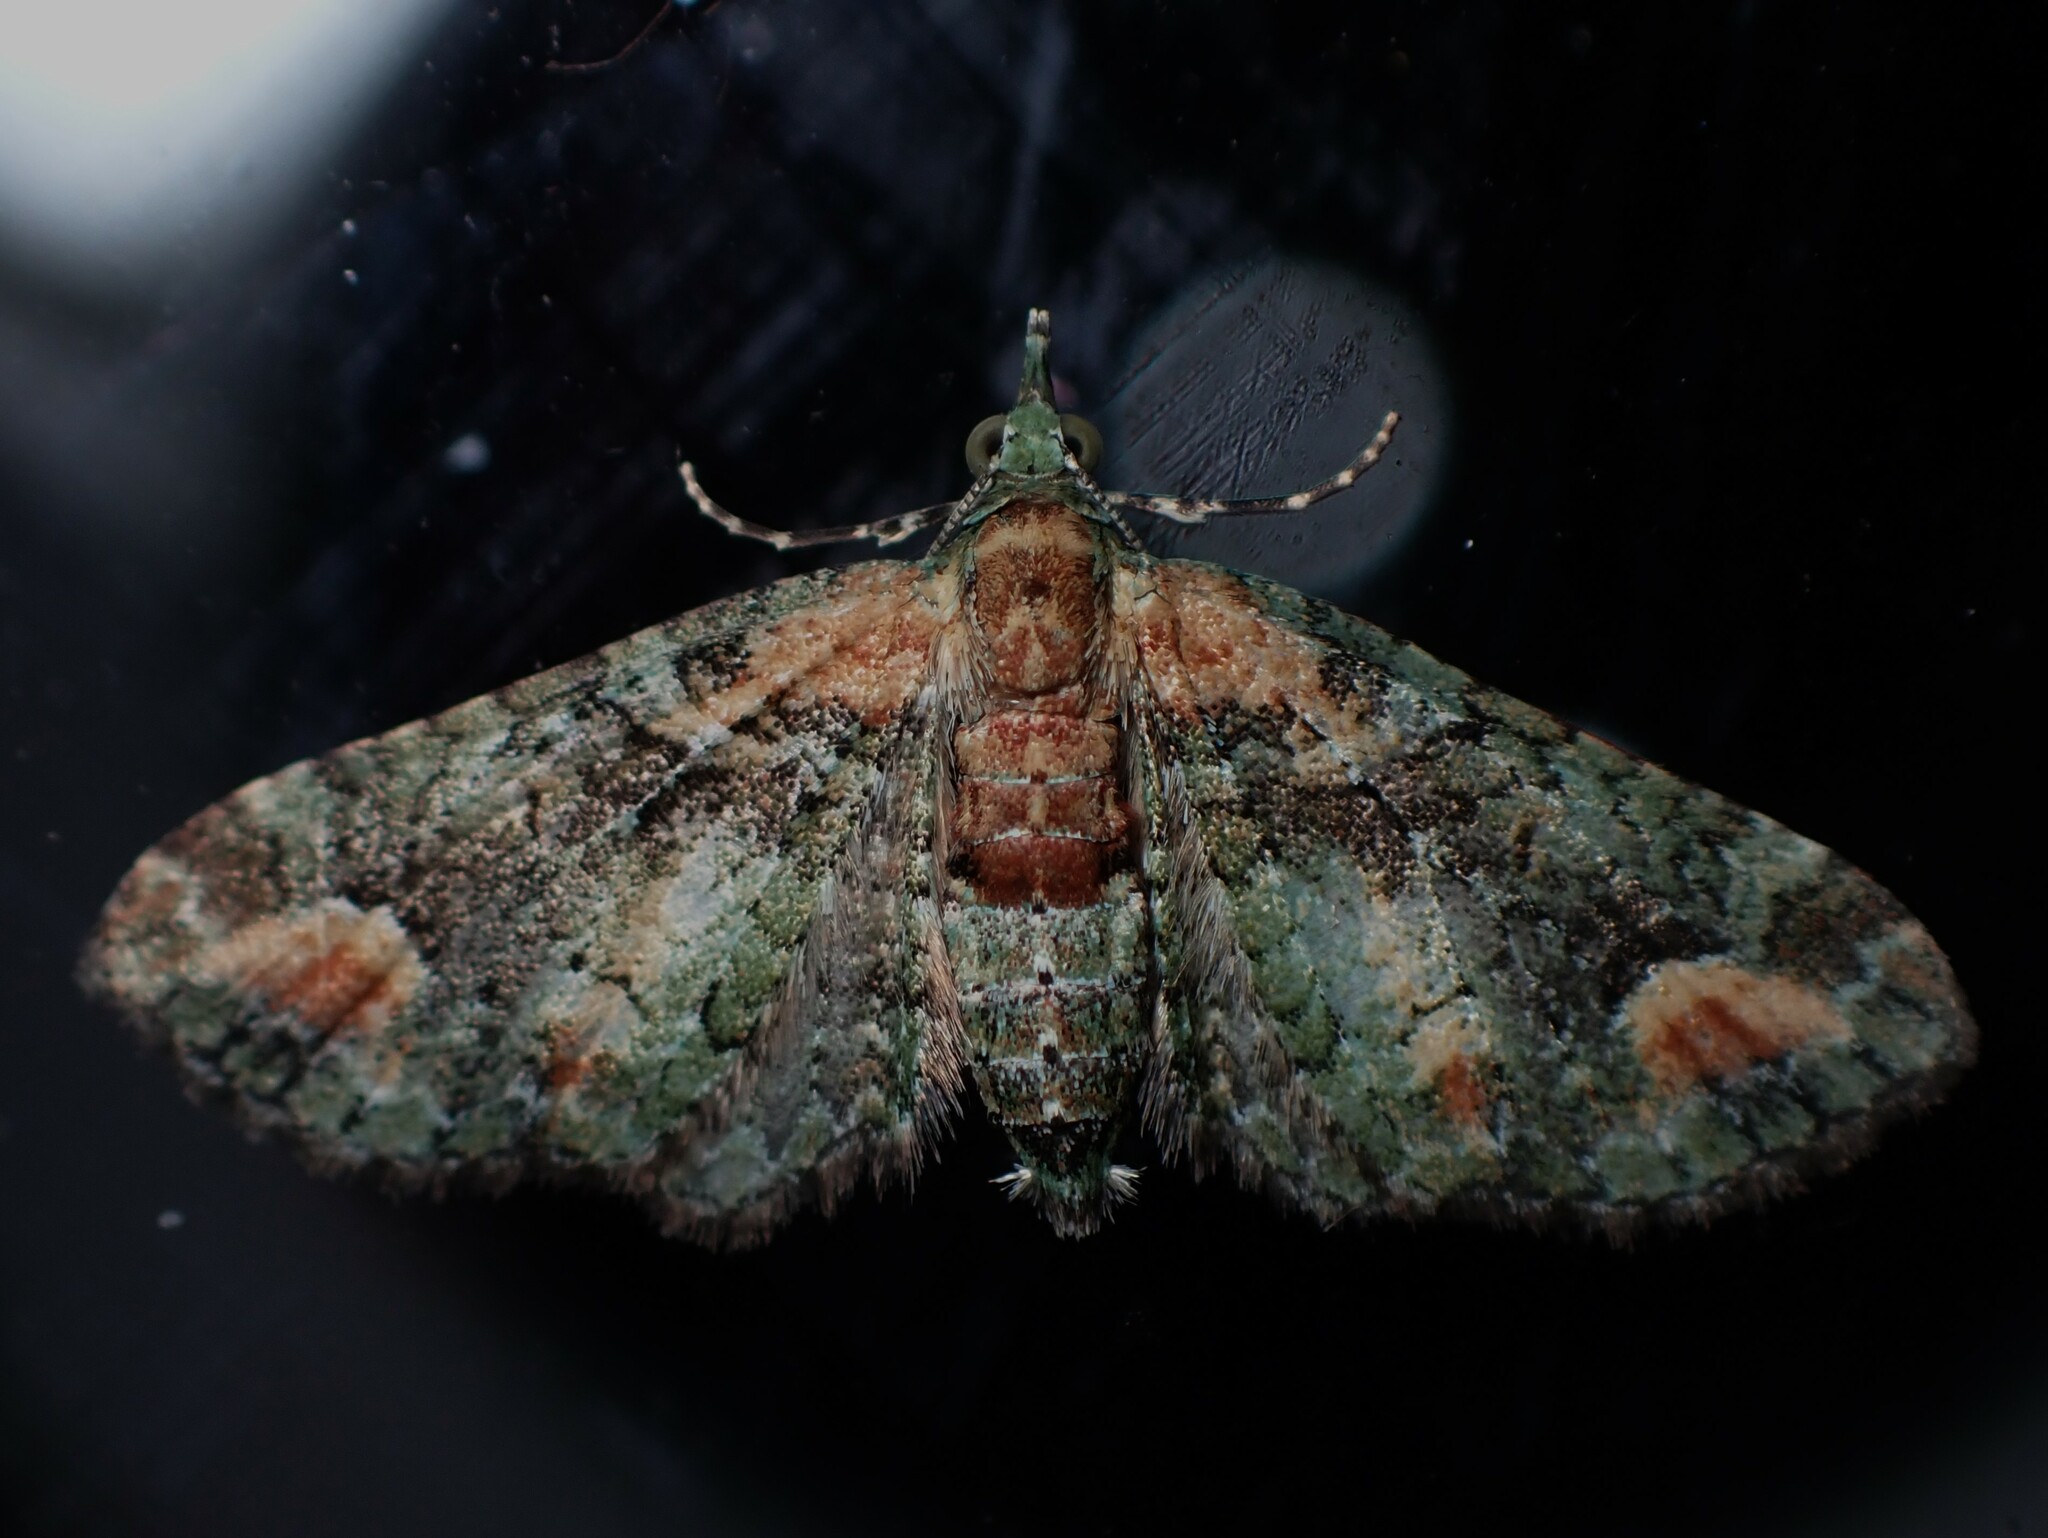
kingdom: Animalia
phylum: Arthropoda
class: Insecta
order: Lepidoptera
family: Geometridae
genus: Idaea
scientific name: Idaea mutanda
